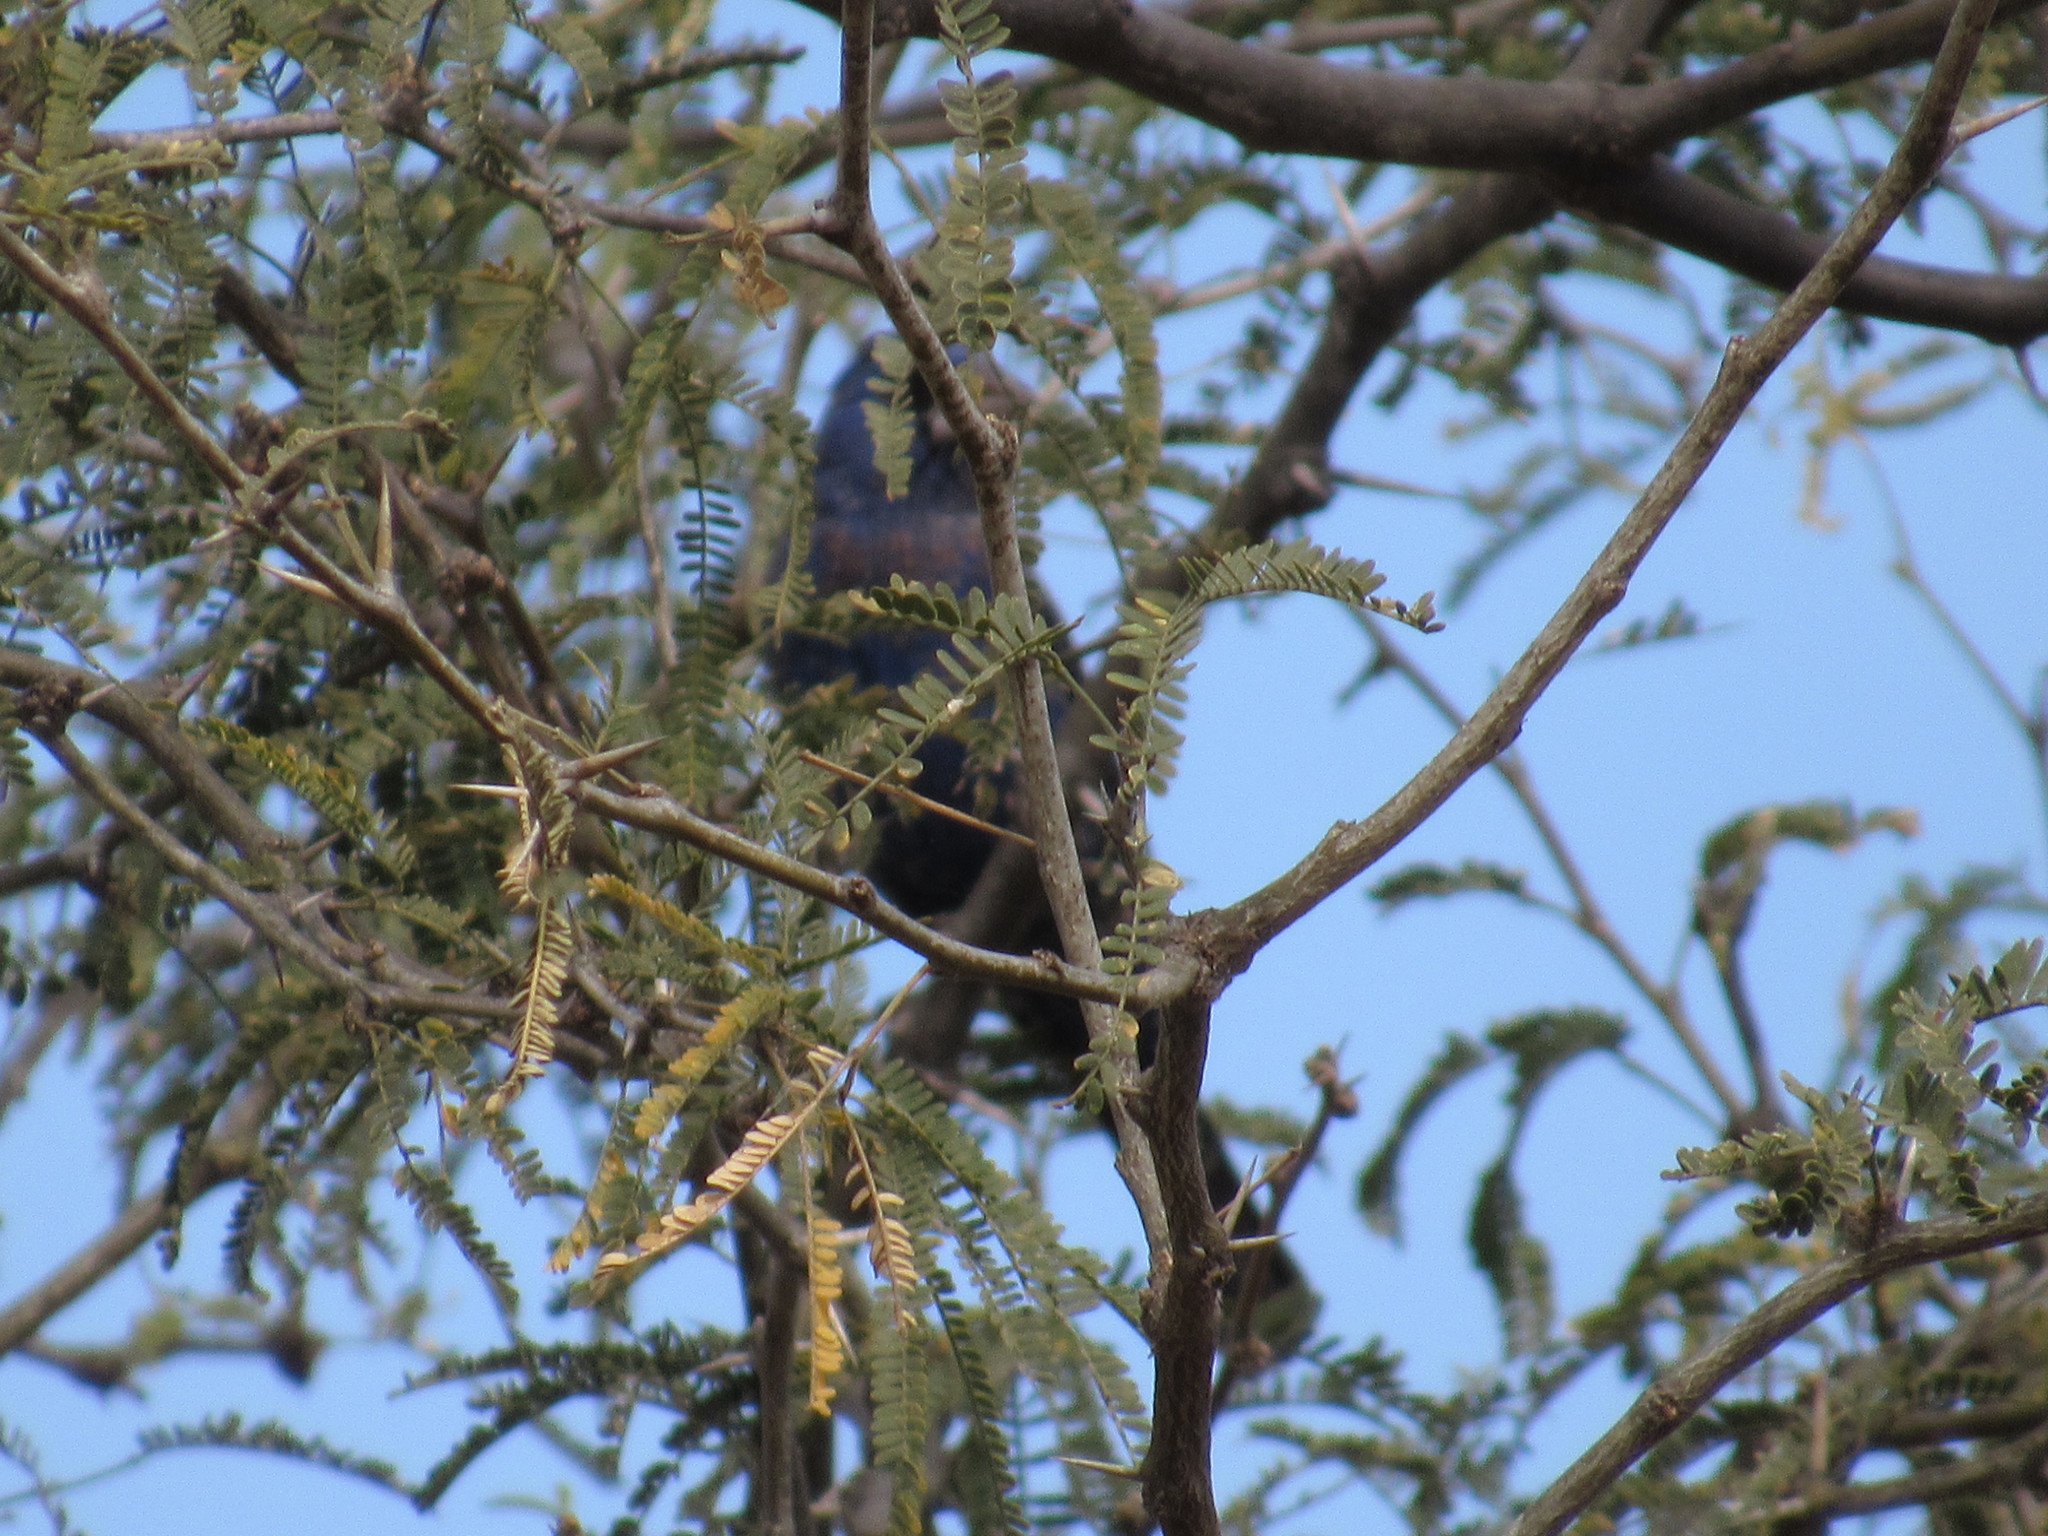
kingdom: Animalia
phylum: Chordata
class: Aves
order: Passeriformes
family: Cardinalidae
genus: Passerina
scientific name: Passerina caerulea
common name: Blue grosbeak
